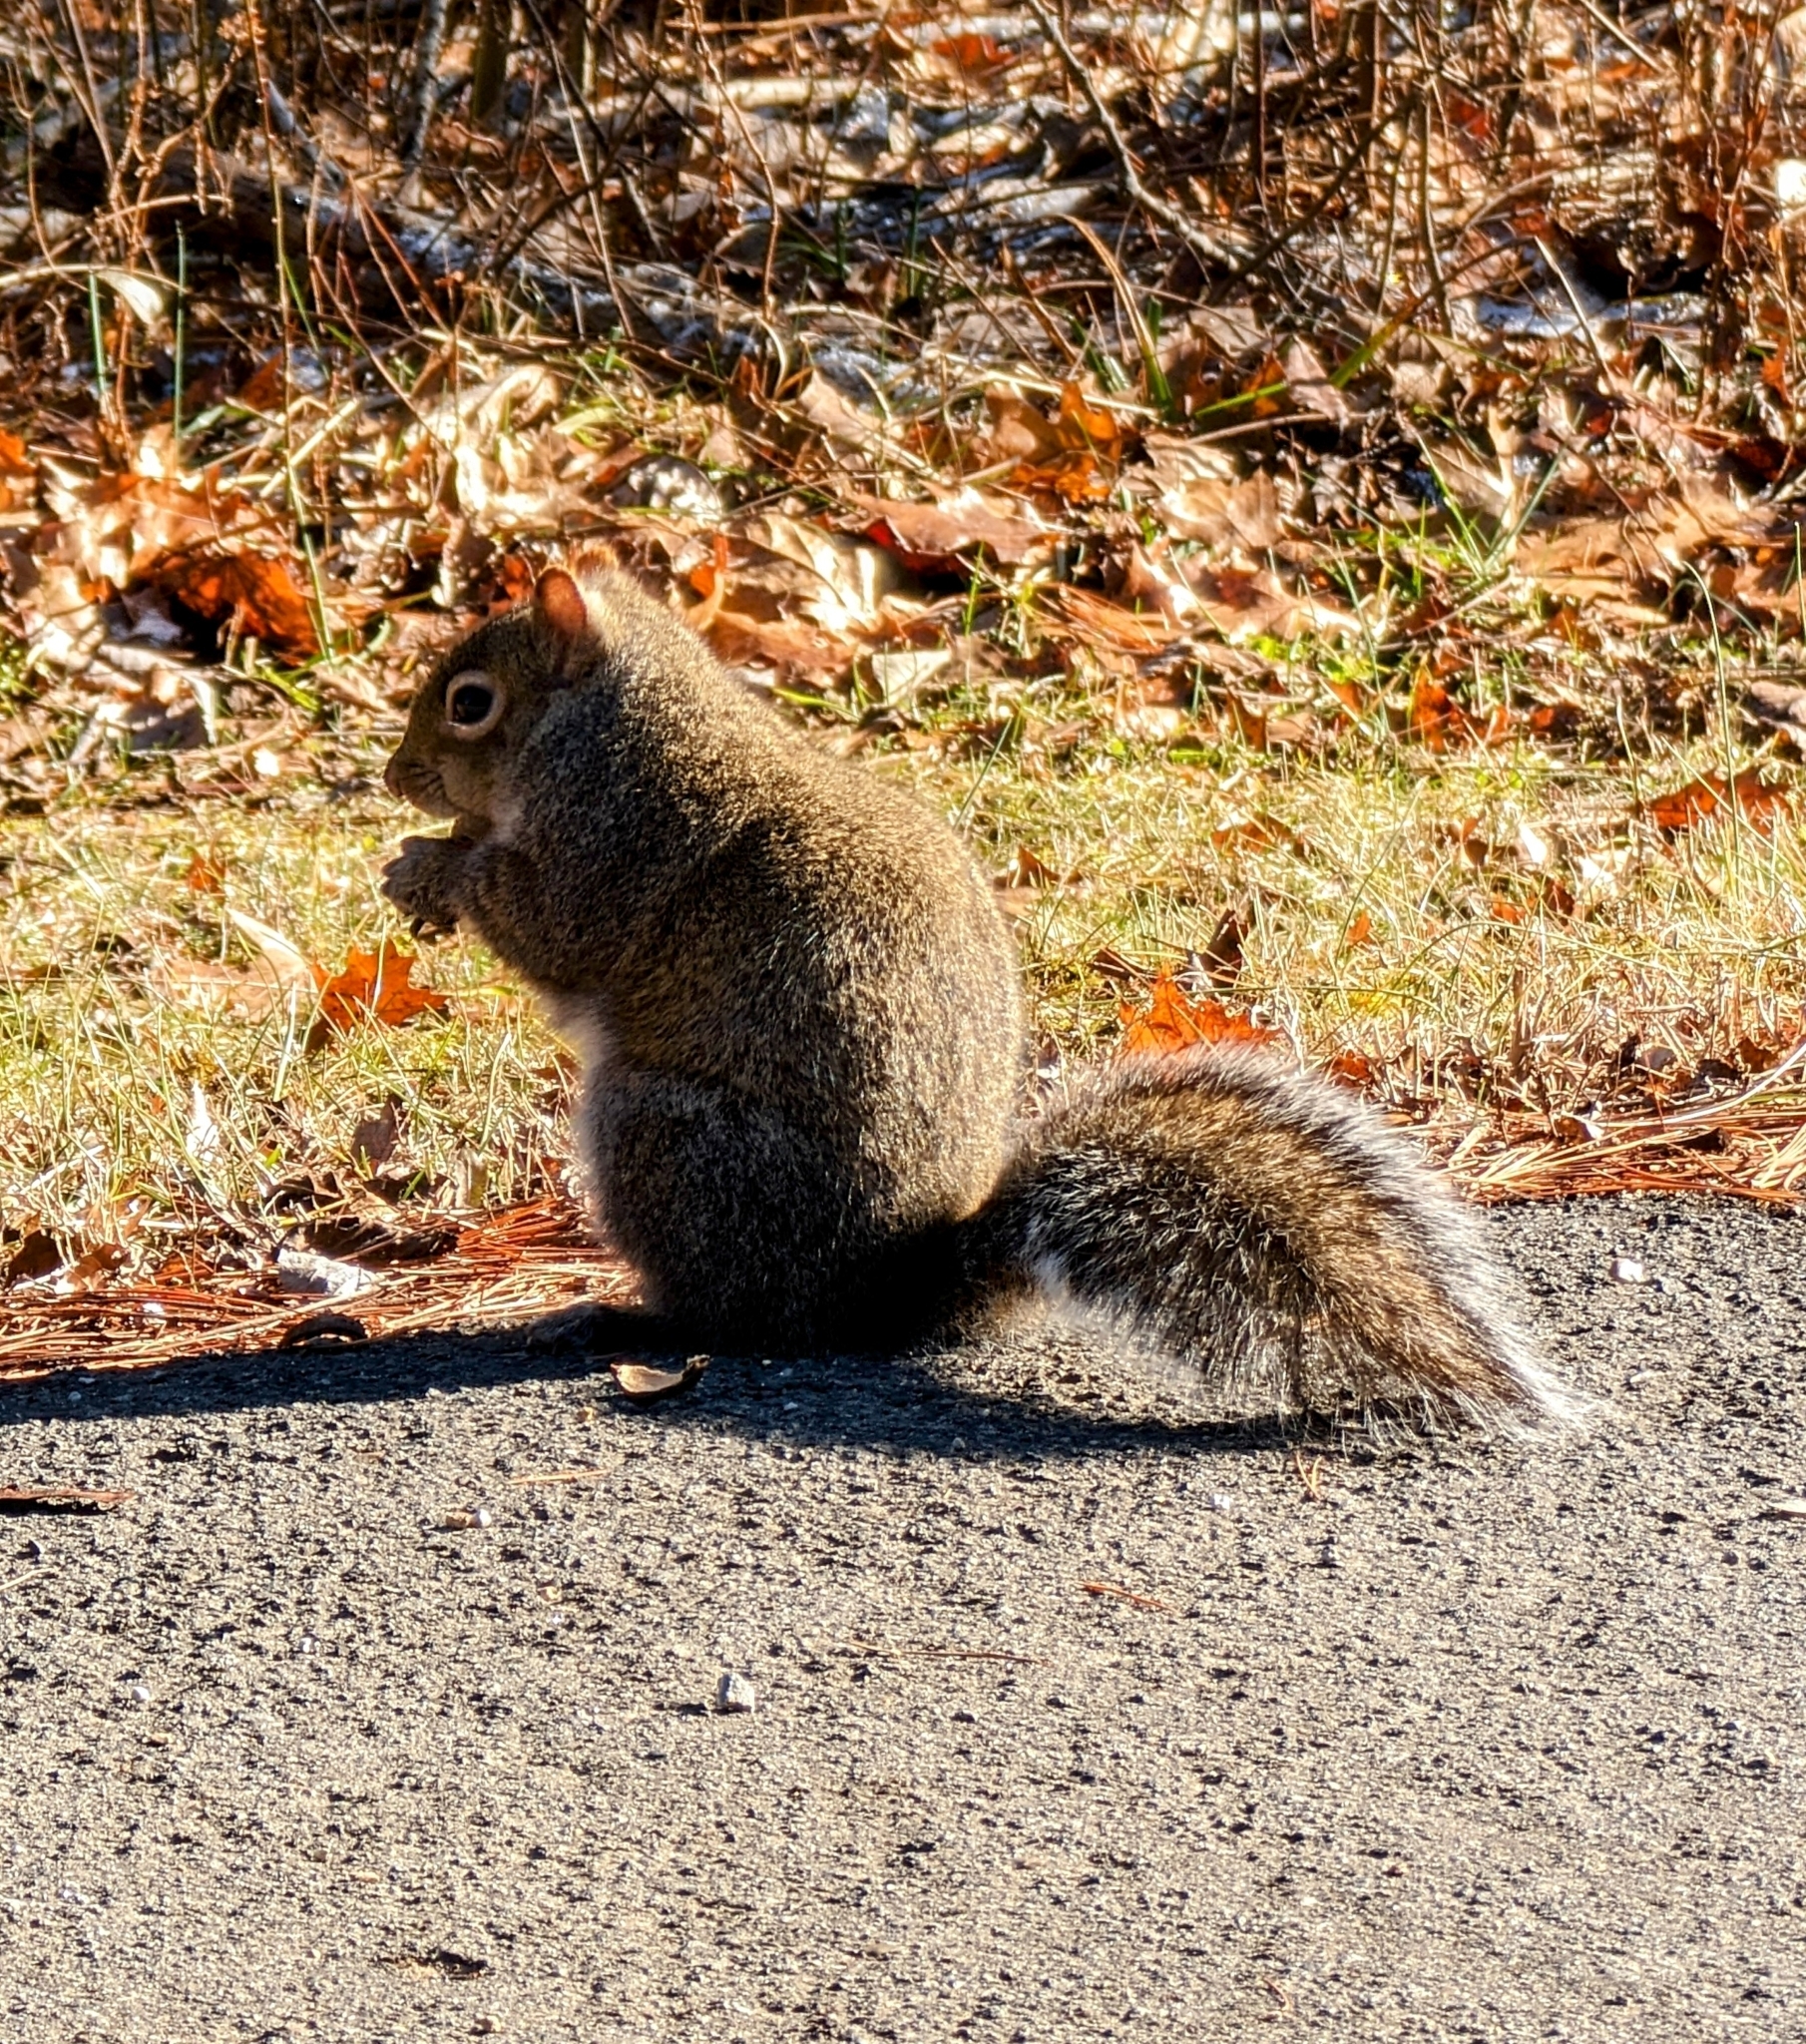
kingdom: Animalia
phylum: Chordata
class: Mammalia
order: Rodentia
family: Sciuridae
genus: Sciurus
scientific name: Sciurus carolinensis
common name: Eastern gray squirrel
